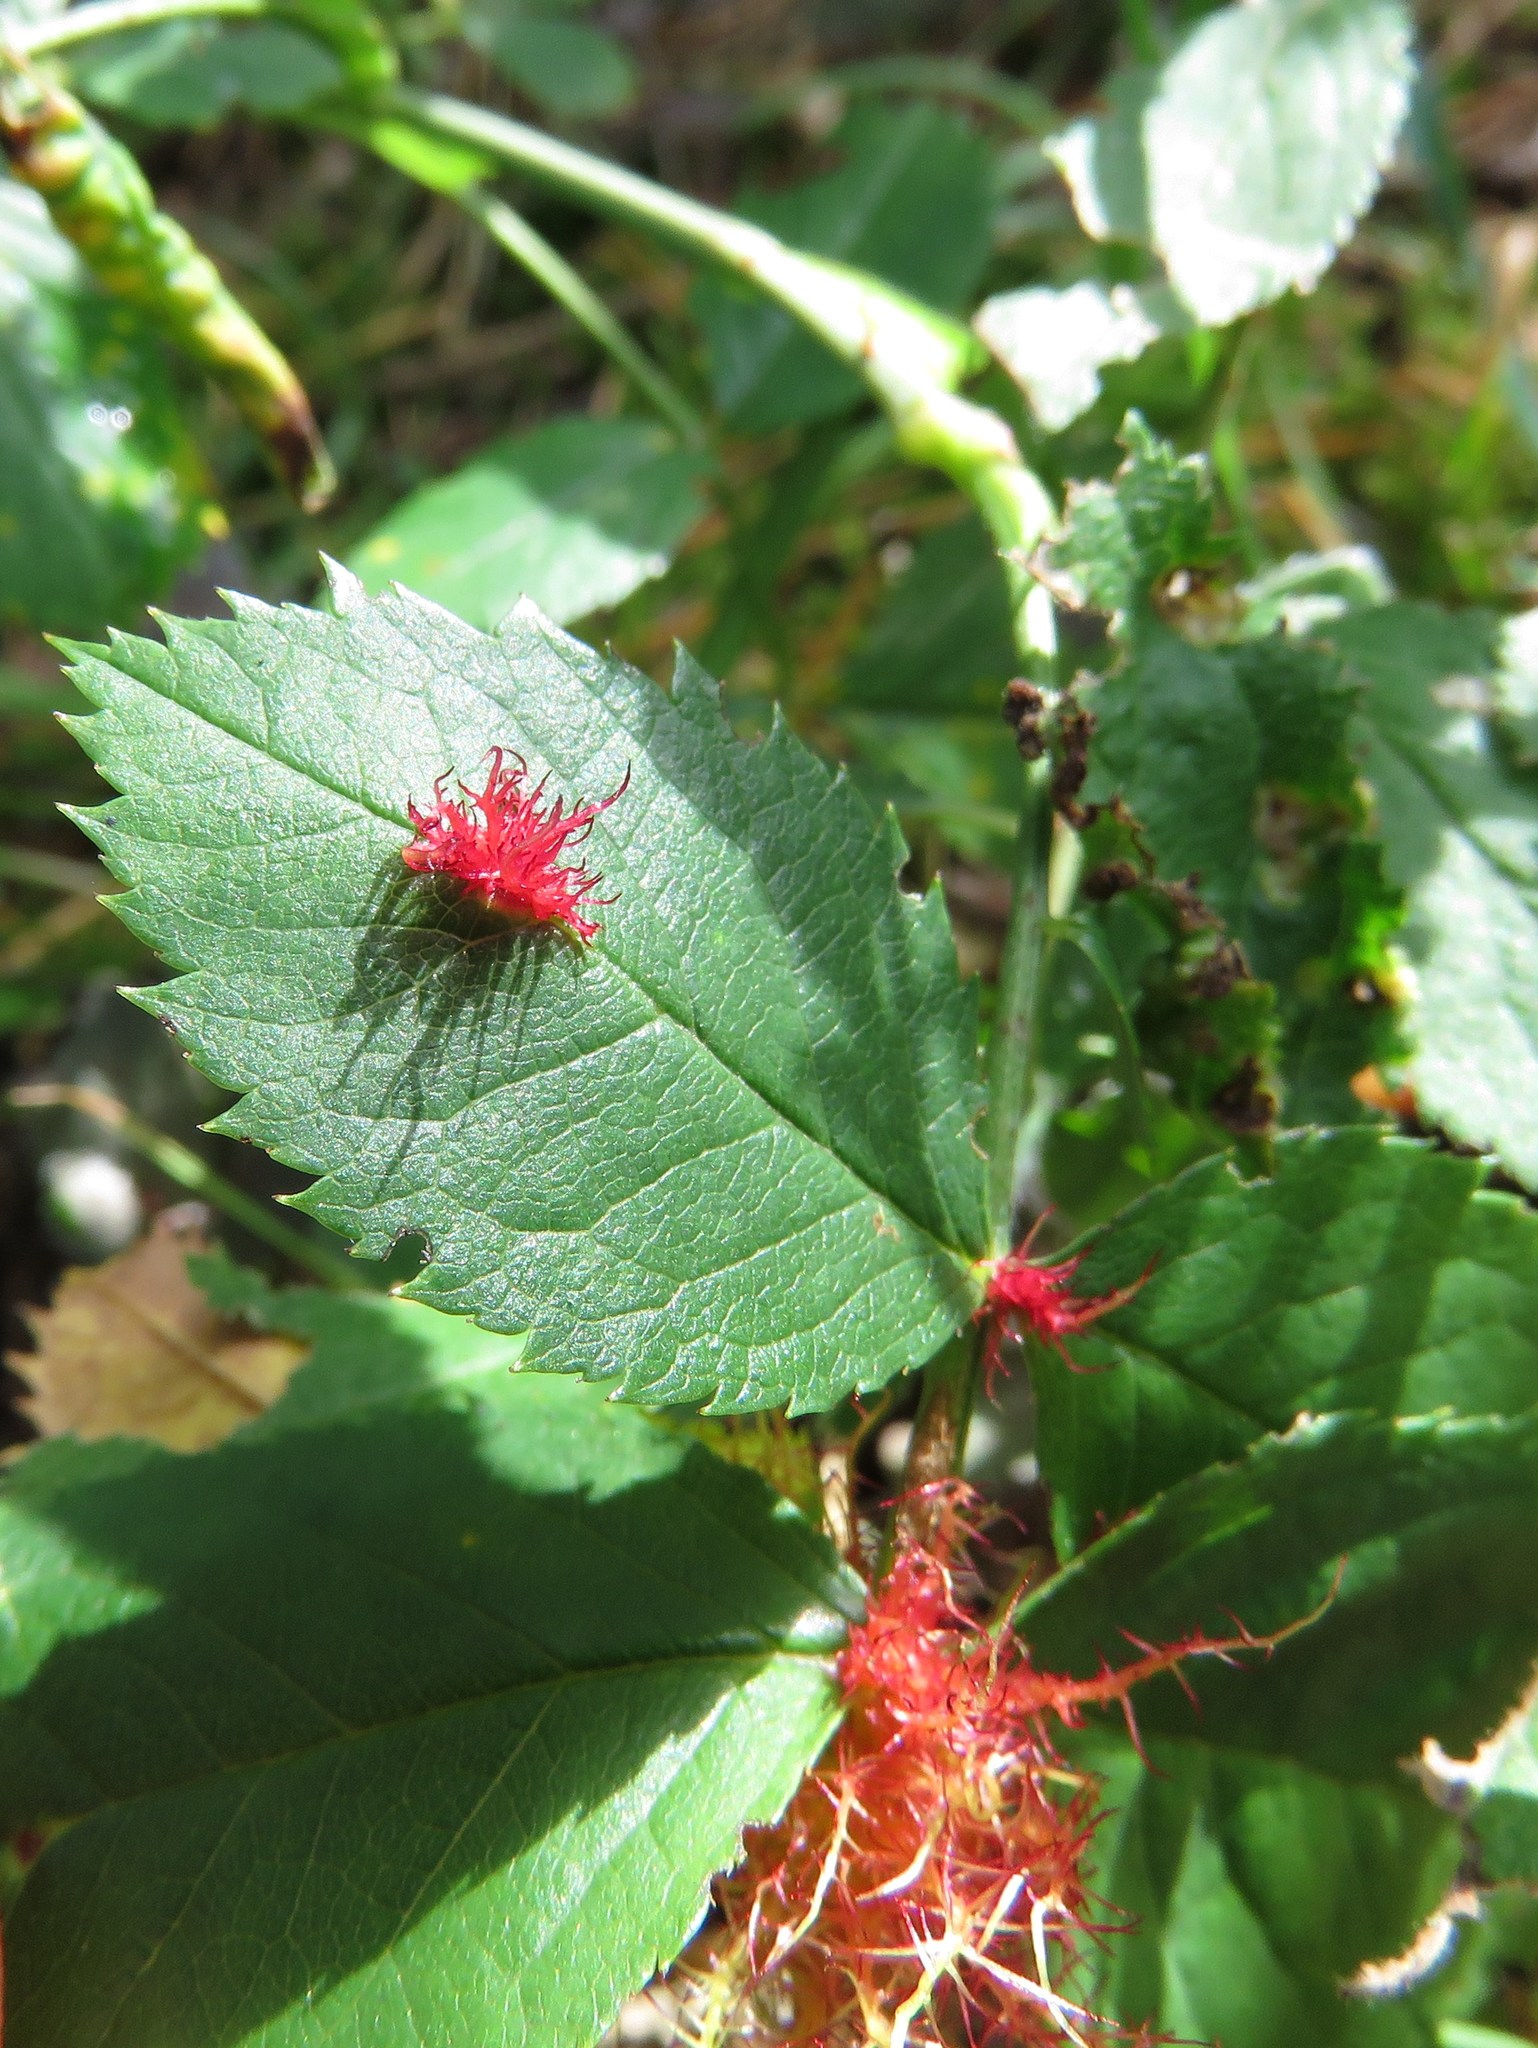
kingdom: Animalia
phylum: Arthropoda
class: Insecta
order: Hymenoptera
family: Cynipidae
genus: Diplolepis
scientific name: Diplolepis rosae
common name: Bedeguar gall
